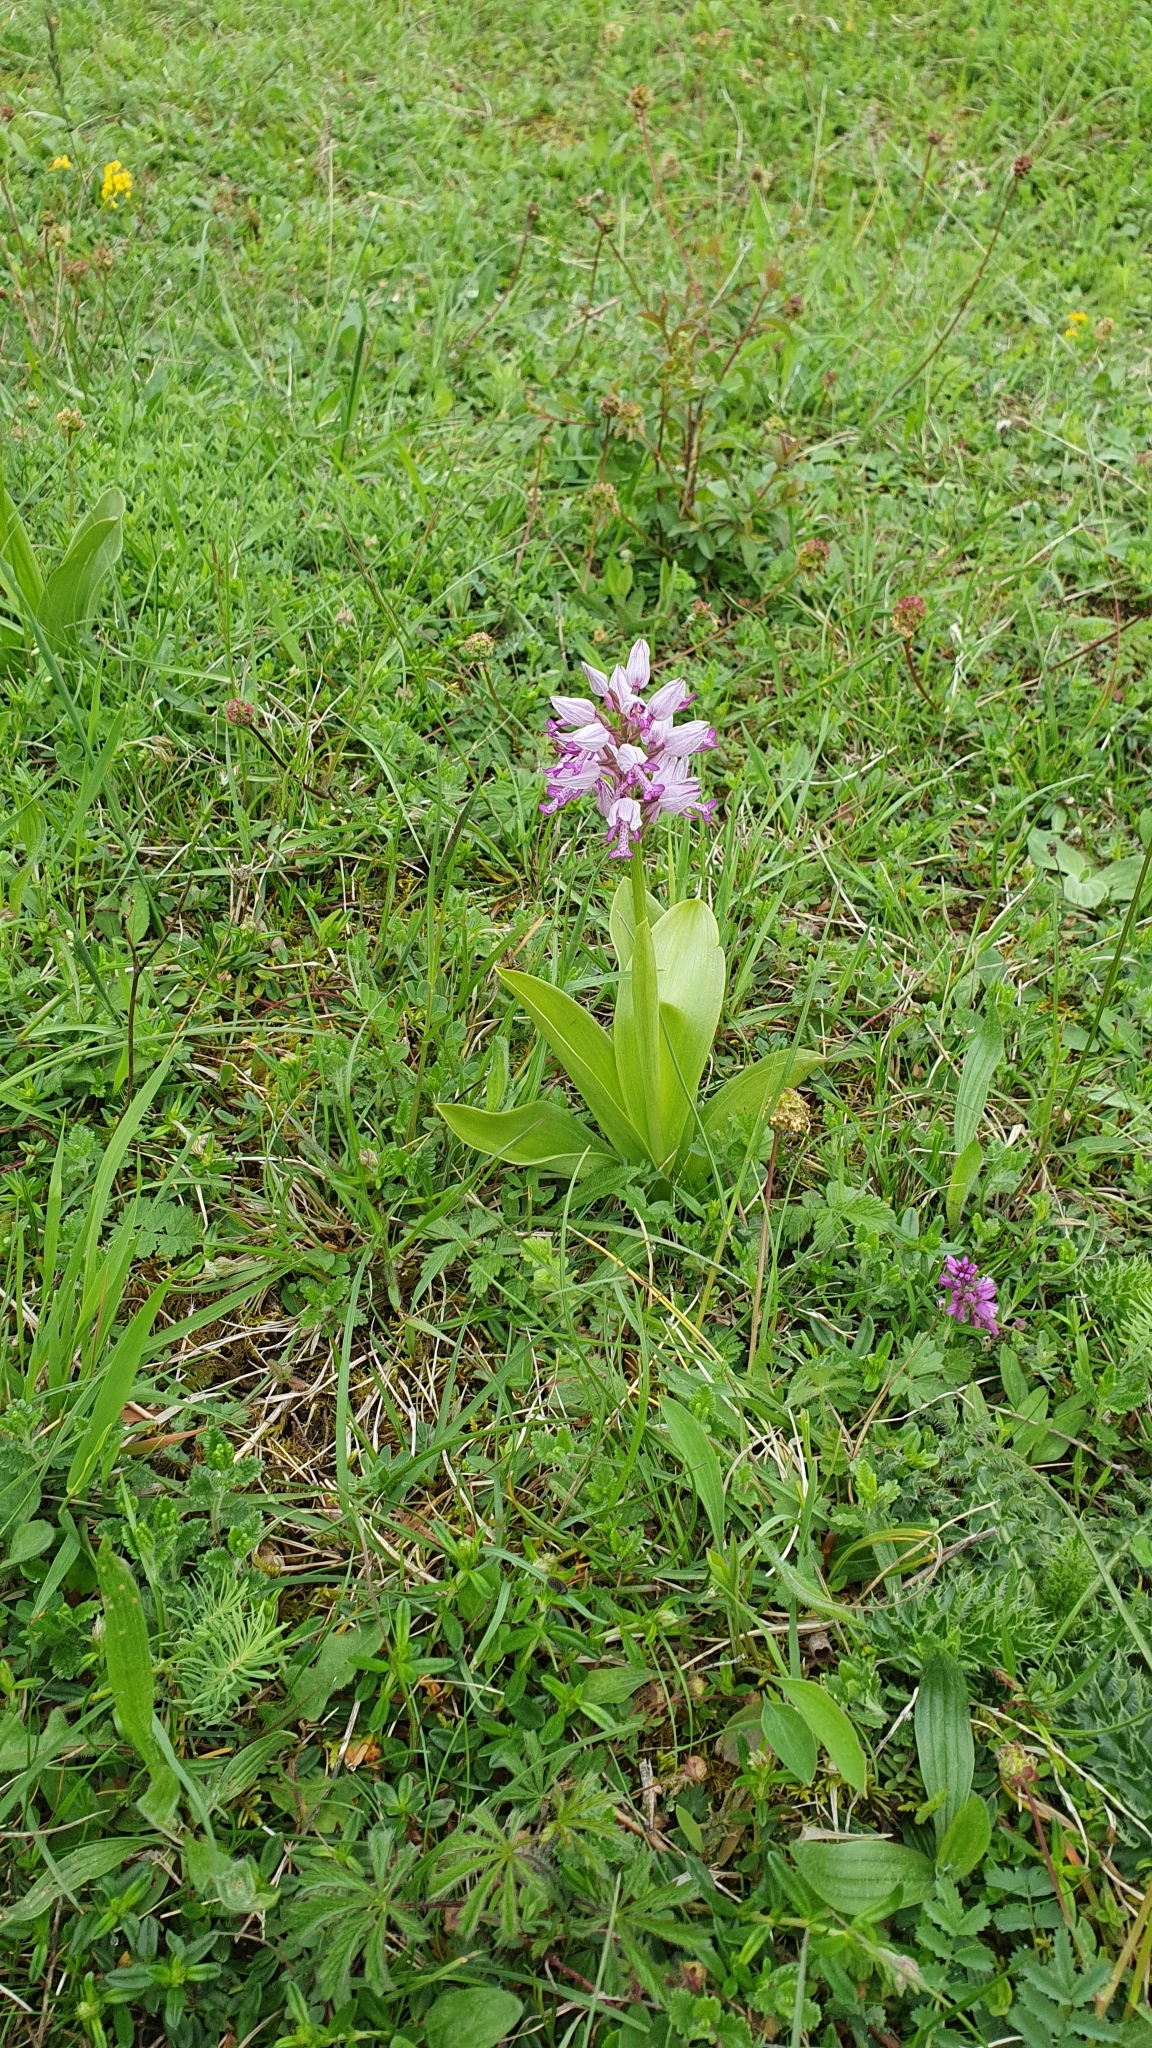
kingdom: Plantae
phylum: Tracheophyta
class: Liliopsida
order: Asparagales
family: Orchidaceae
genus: Orchis
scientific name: Orchis militaris
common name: Military orchid
